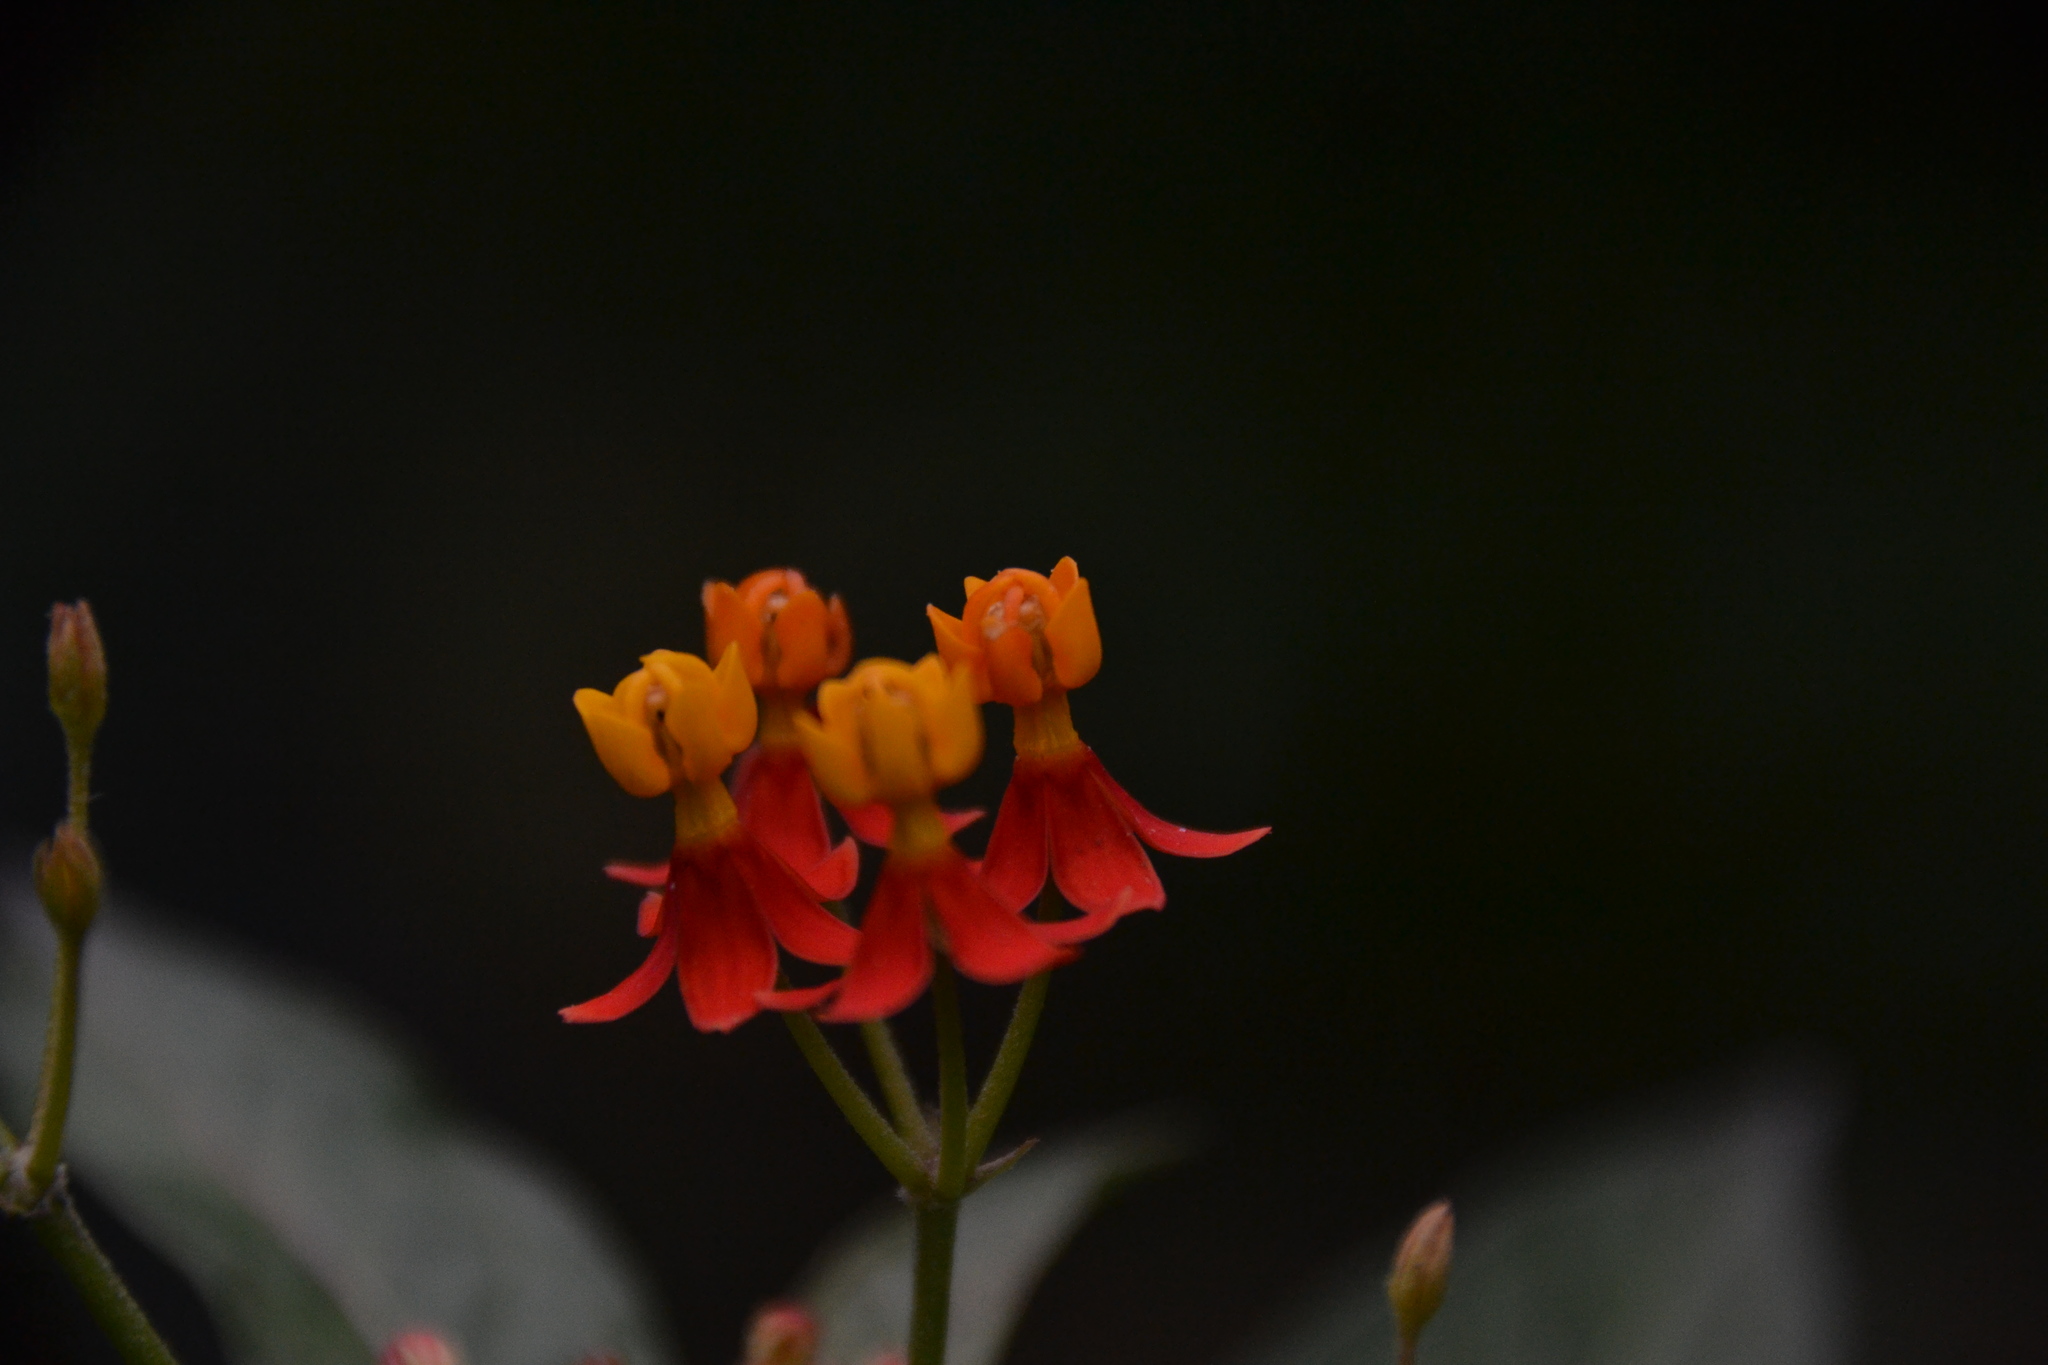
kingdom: Plantae
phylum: Tracheophyta
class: Magnoliopsida
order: Gentianales
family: Apocynaceae
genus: Asclepias
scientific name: Asclepias curassavica
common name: Bloodflower
